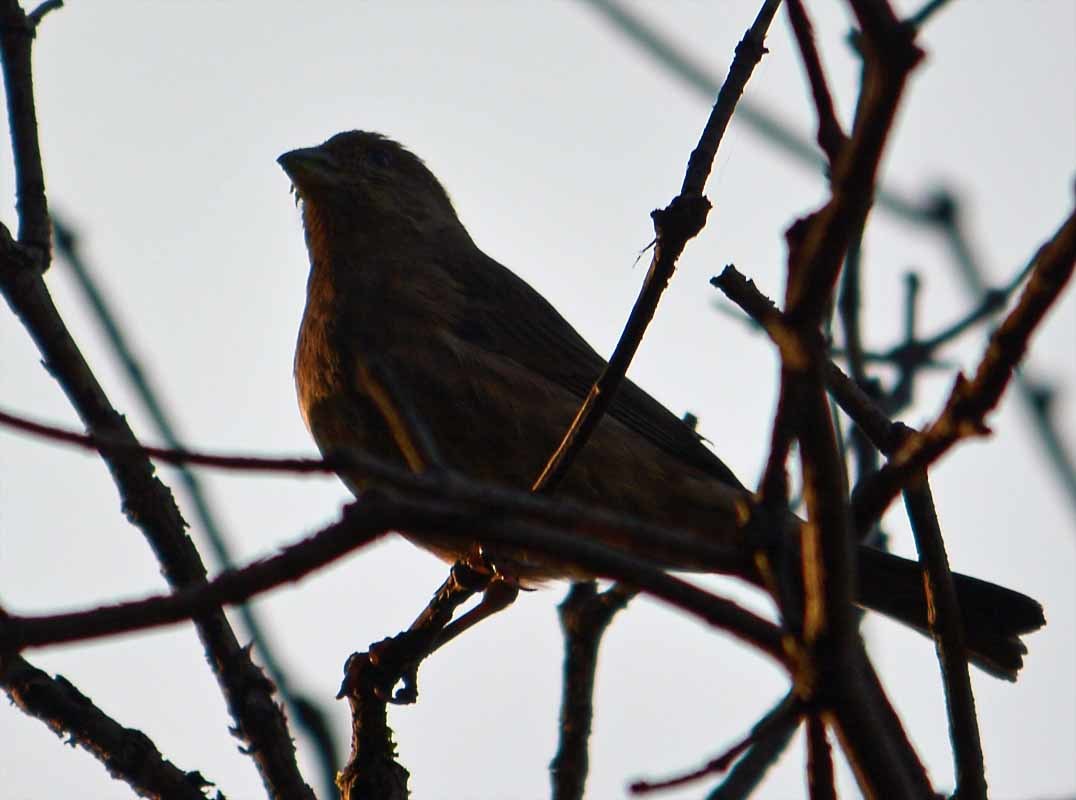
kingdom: Animalia
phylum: Chordata
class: Aves
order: Passeriformes
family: Fringillidae
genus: Haemorhous
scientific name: Haemorhous mexicanus
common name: House finch
